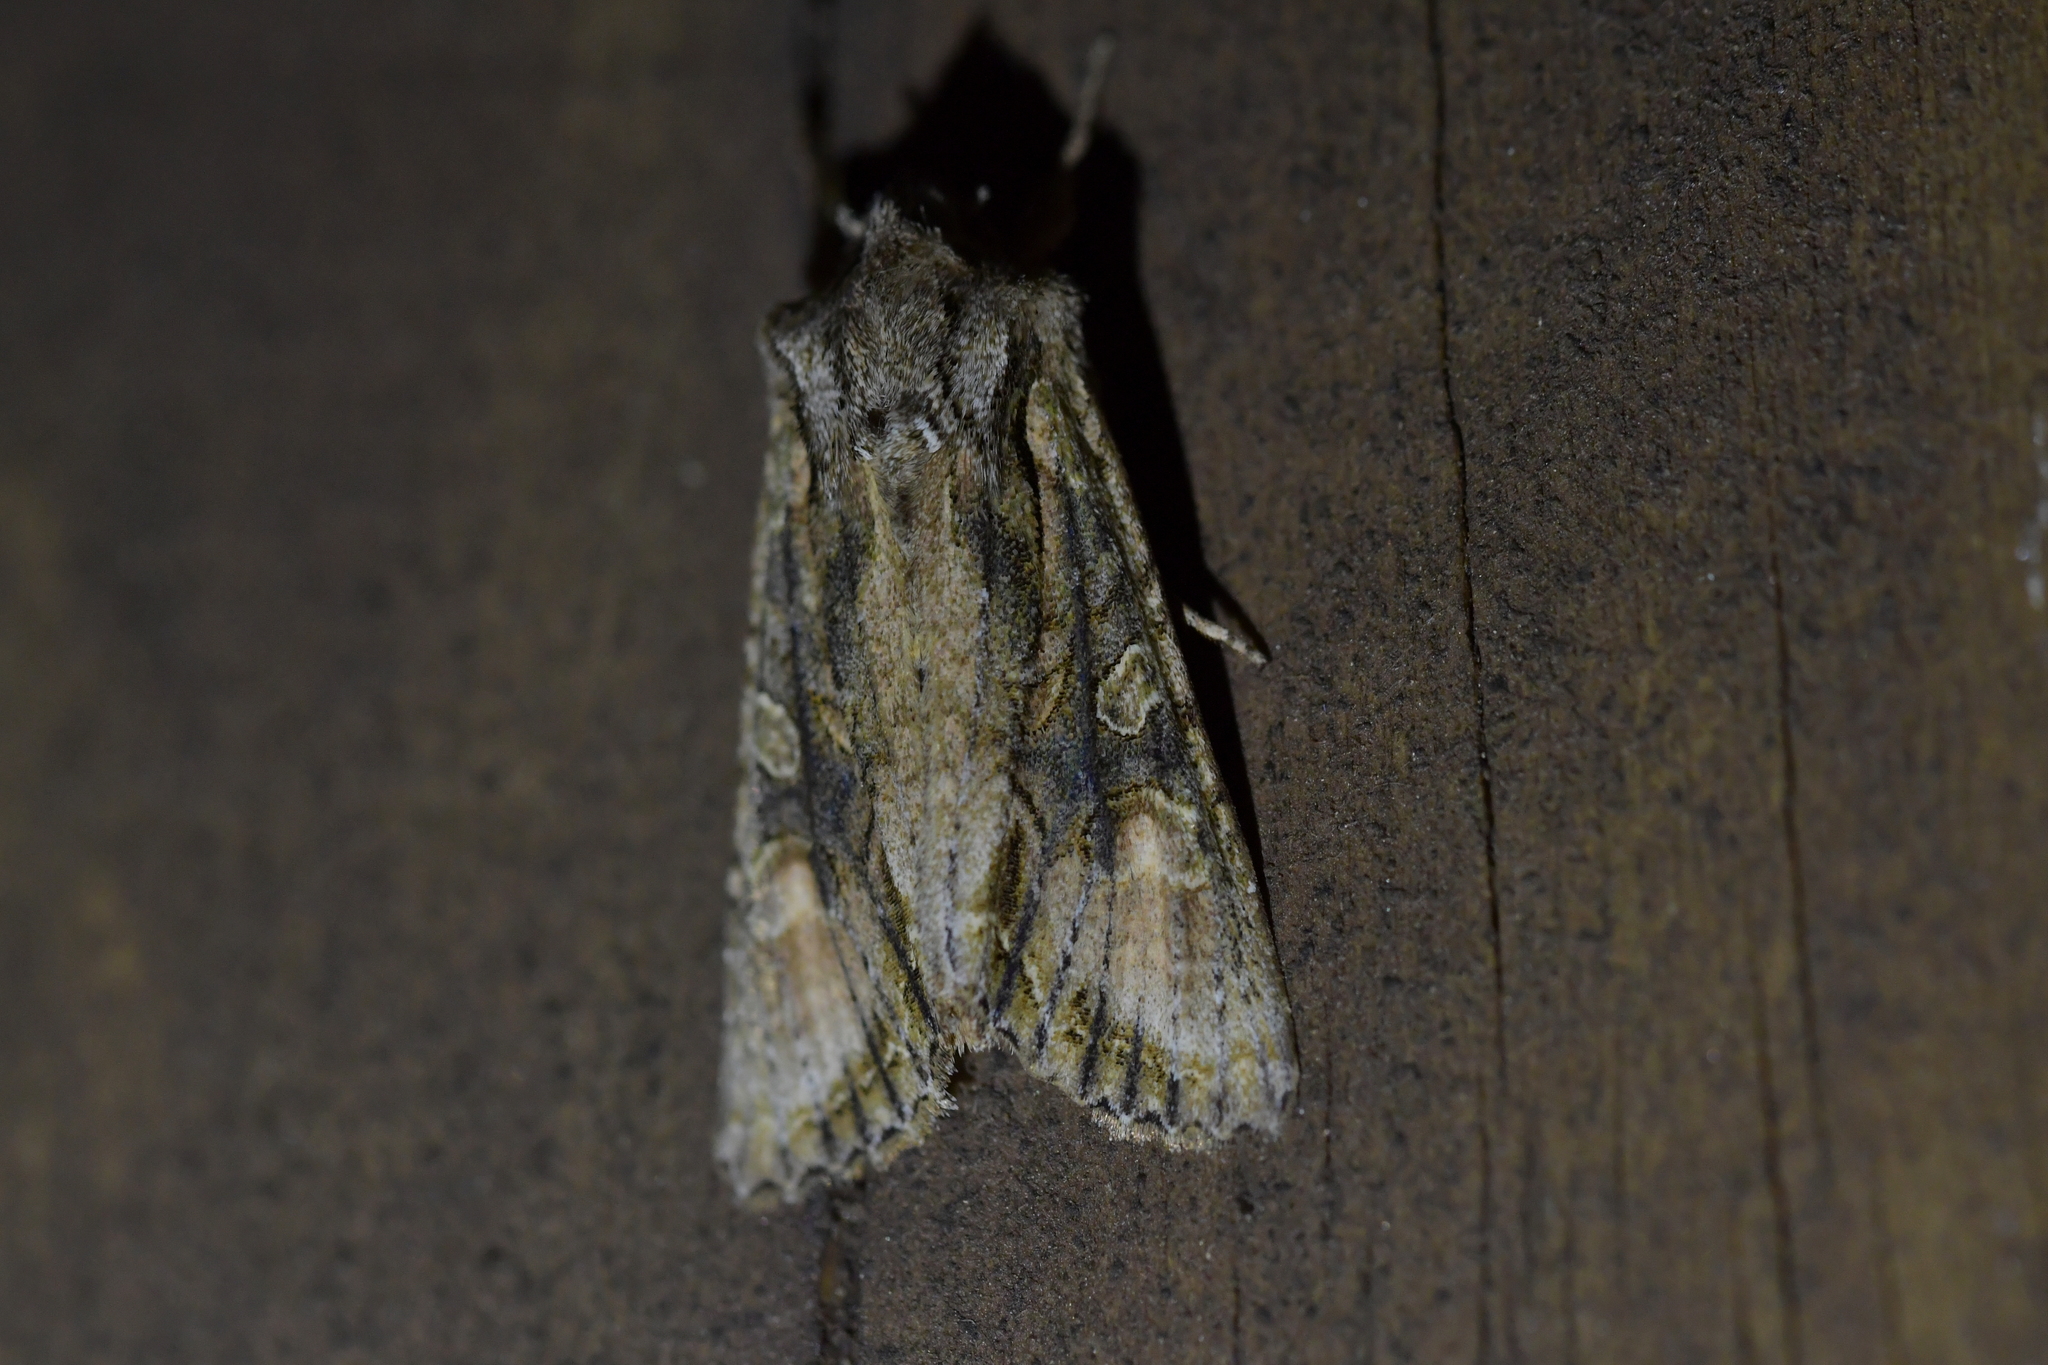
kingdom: Animalia
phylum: Arthropoda
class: Insecta
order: Lepidoptera
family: Noctuidae
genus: Ichneutica
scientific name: Ichneutica mutans
